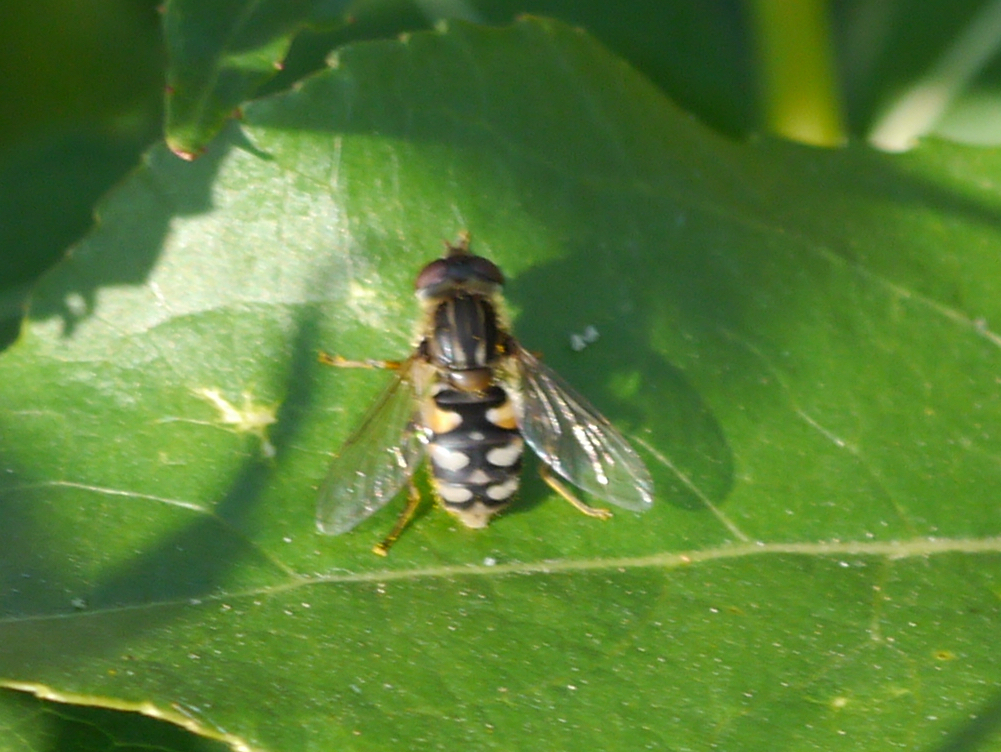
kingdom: Animalia
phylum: Arthropoda
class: Insecta
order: Diptera
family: Syrphidae
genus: Parhelophilus
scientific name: Parhelophilus rex
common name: Dusky bog fly
